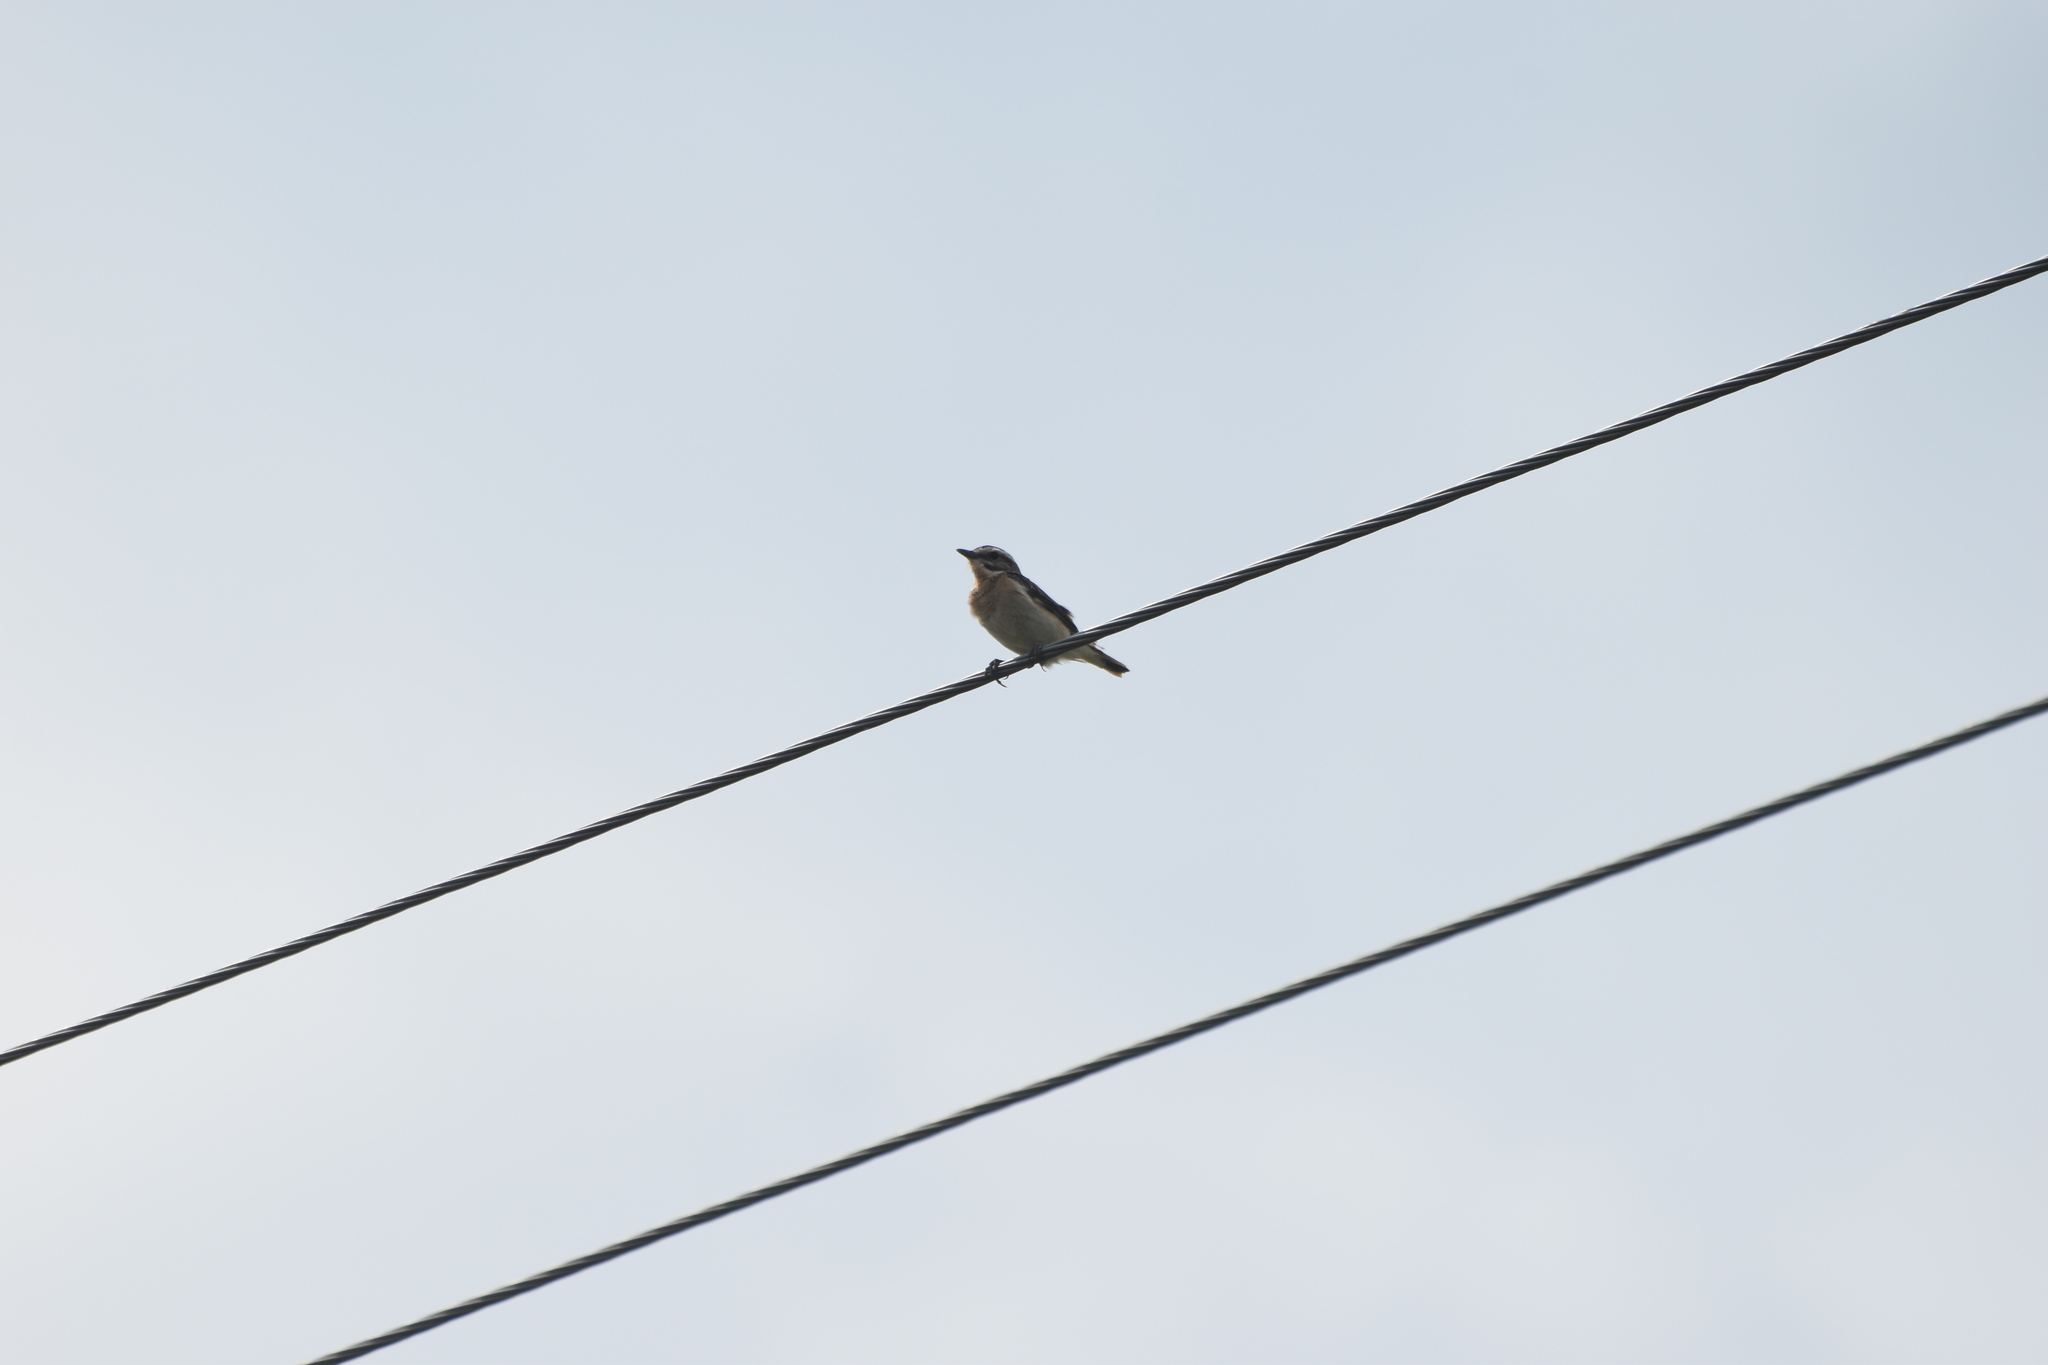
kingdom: Animalia
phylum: Chordata
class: Aves
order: Passeriformes
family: Muscicapidae
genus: Saxicola
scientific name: Saxicola rubetra
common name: Whinchat
